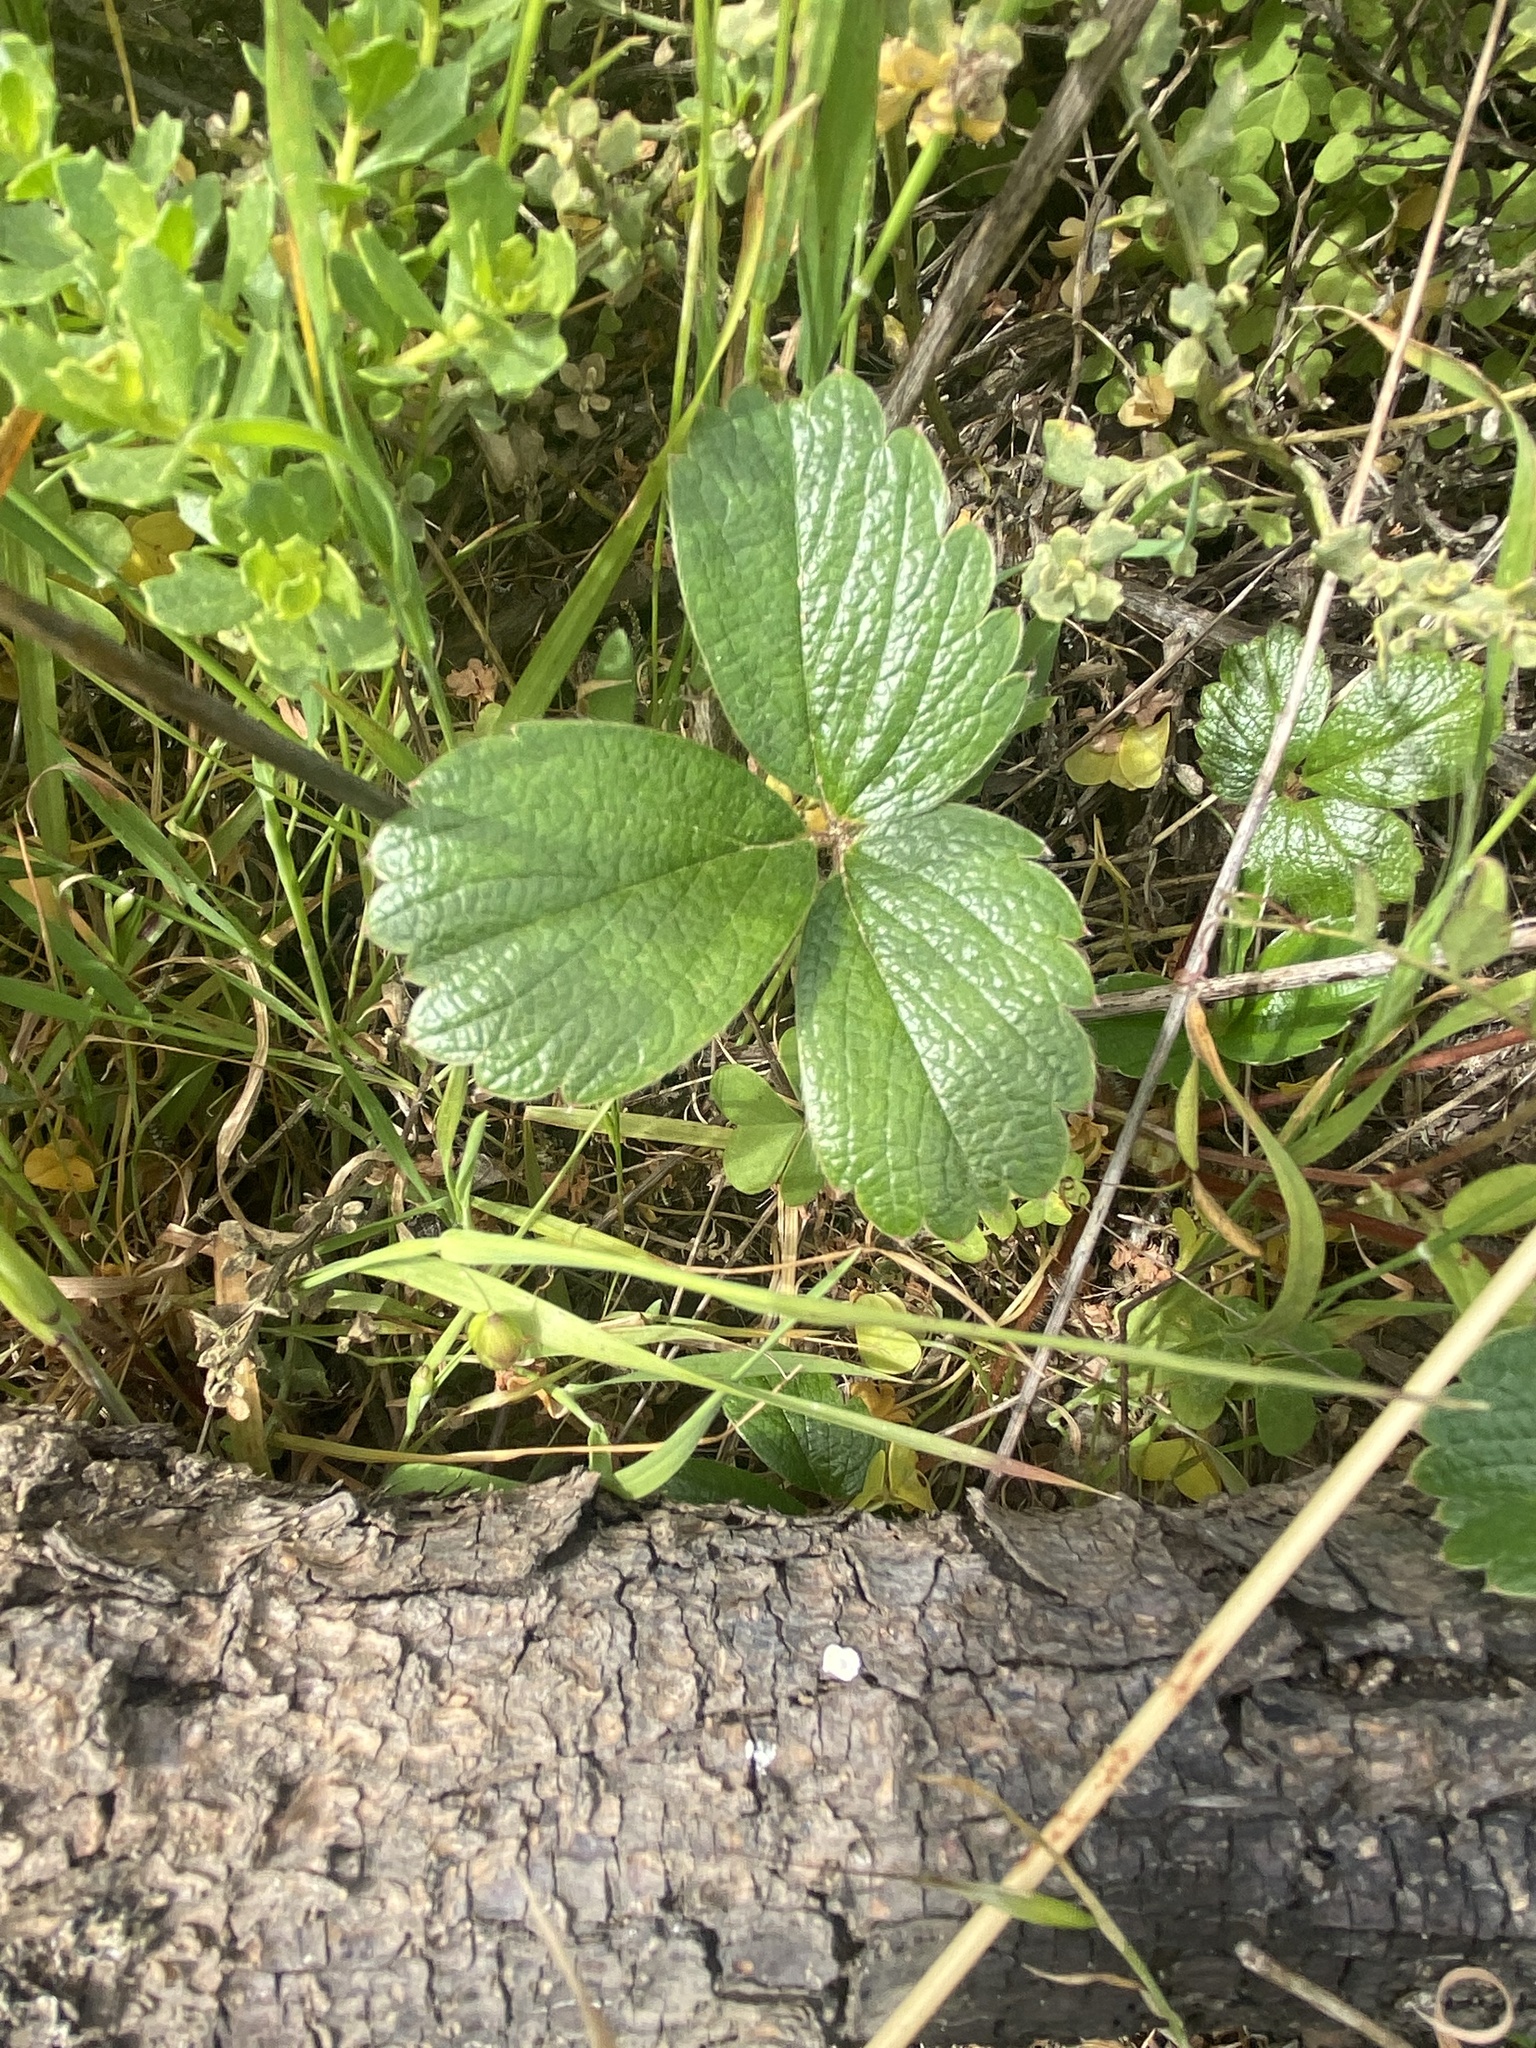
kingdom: Plantae
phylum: Tracheophyta
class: Magnoliopsida
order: Rosales
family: Rosaceae
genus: Fragaria
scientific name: Fragaria chiloensis
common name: Beach strawberry
